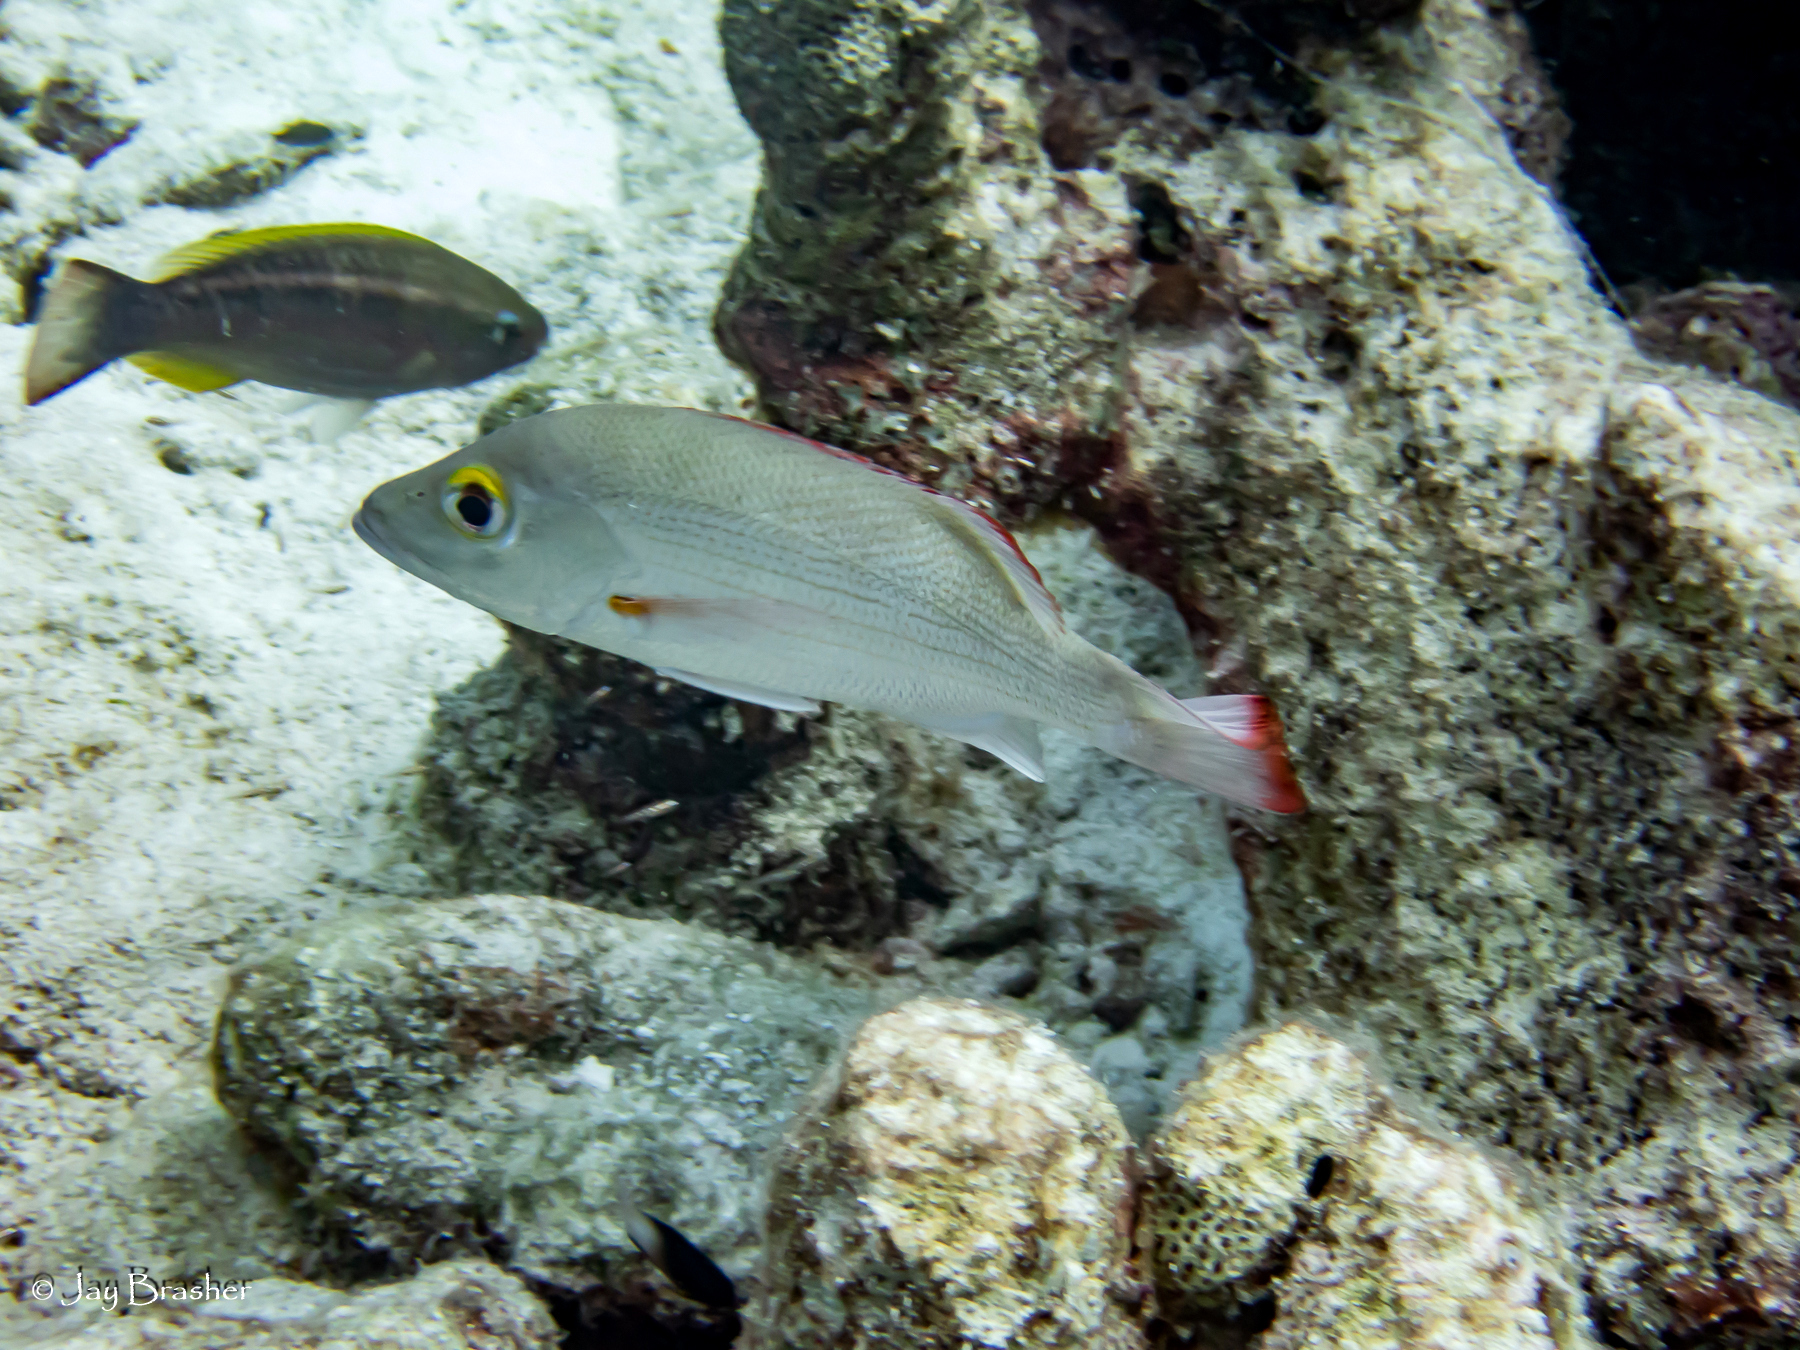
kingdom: Animalia
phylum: Chordata
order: Perciformes
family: Lutjanidae
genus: Lutjanus
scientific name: Lutjanus mahogoni
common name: Spot snapper
